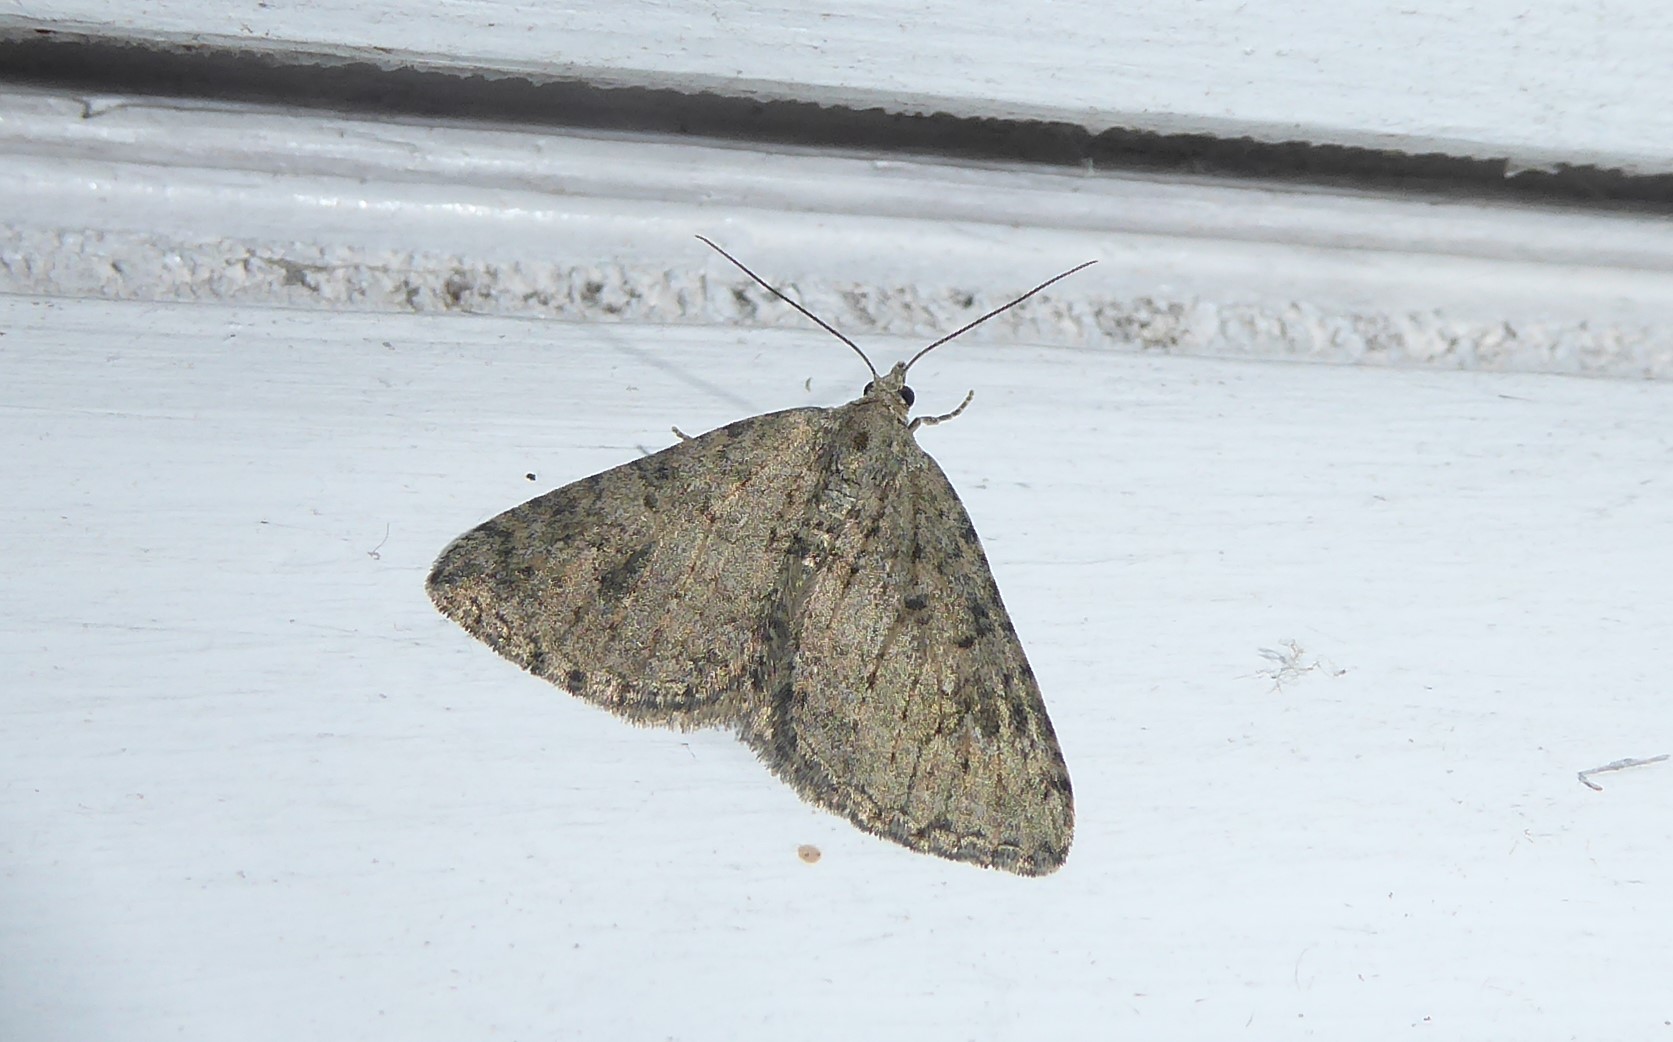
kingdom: Animalia
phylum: Arthropoda
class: Insecta
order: Lepidoptera
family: Geometridae
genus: Helastia
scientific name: Helastia corcularia
